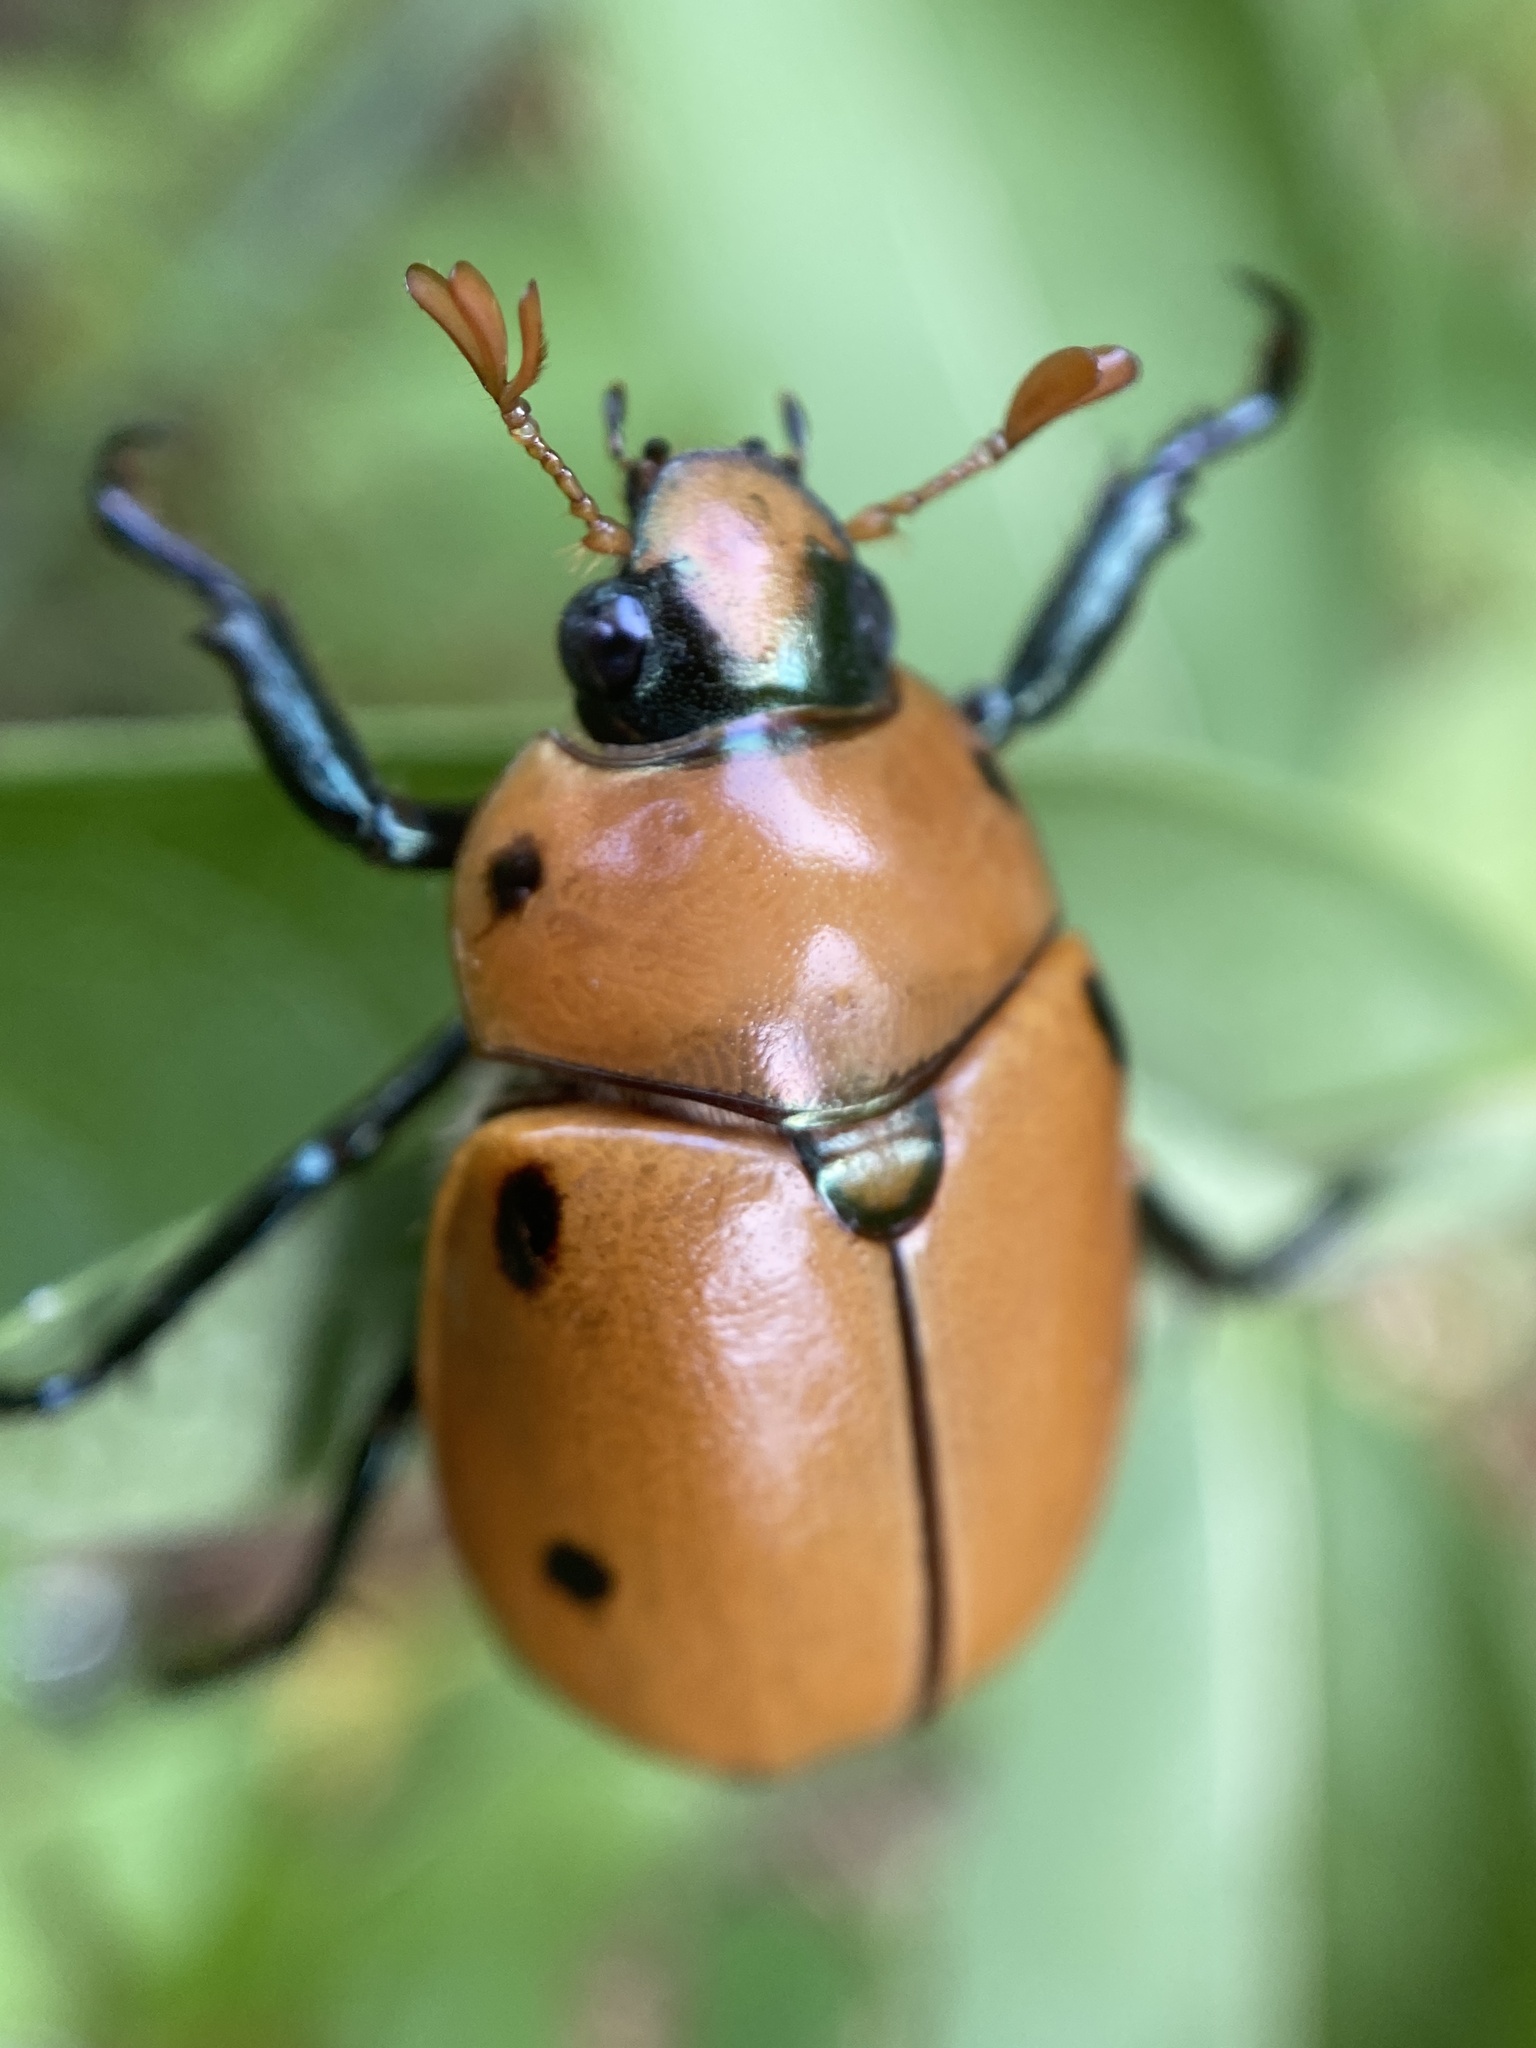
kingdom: Animalia
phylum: Arthropoda
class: Insecta
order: Coleoptera
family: Scarabaeidae
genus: Pelidnota
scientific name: Pelidnota punctata
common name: Grapevine beetle
